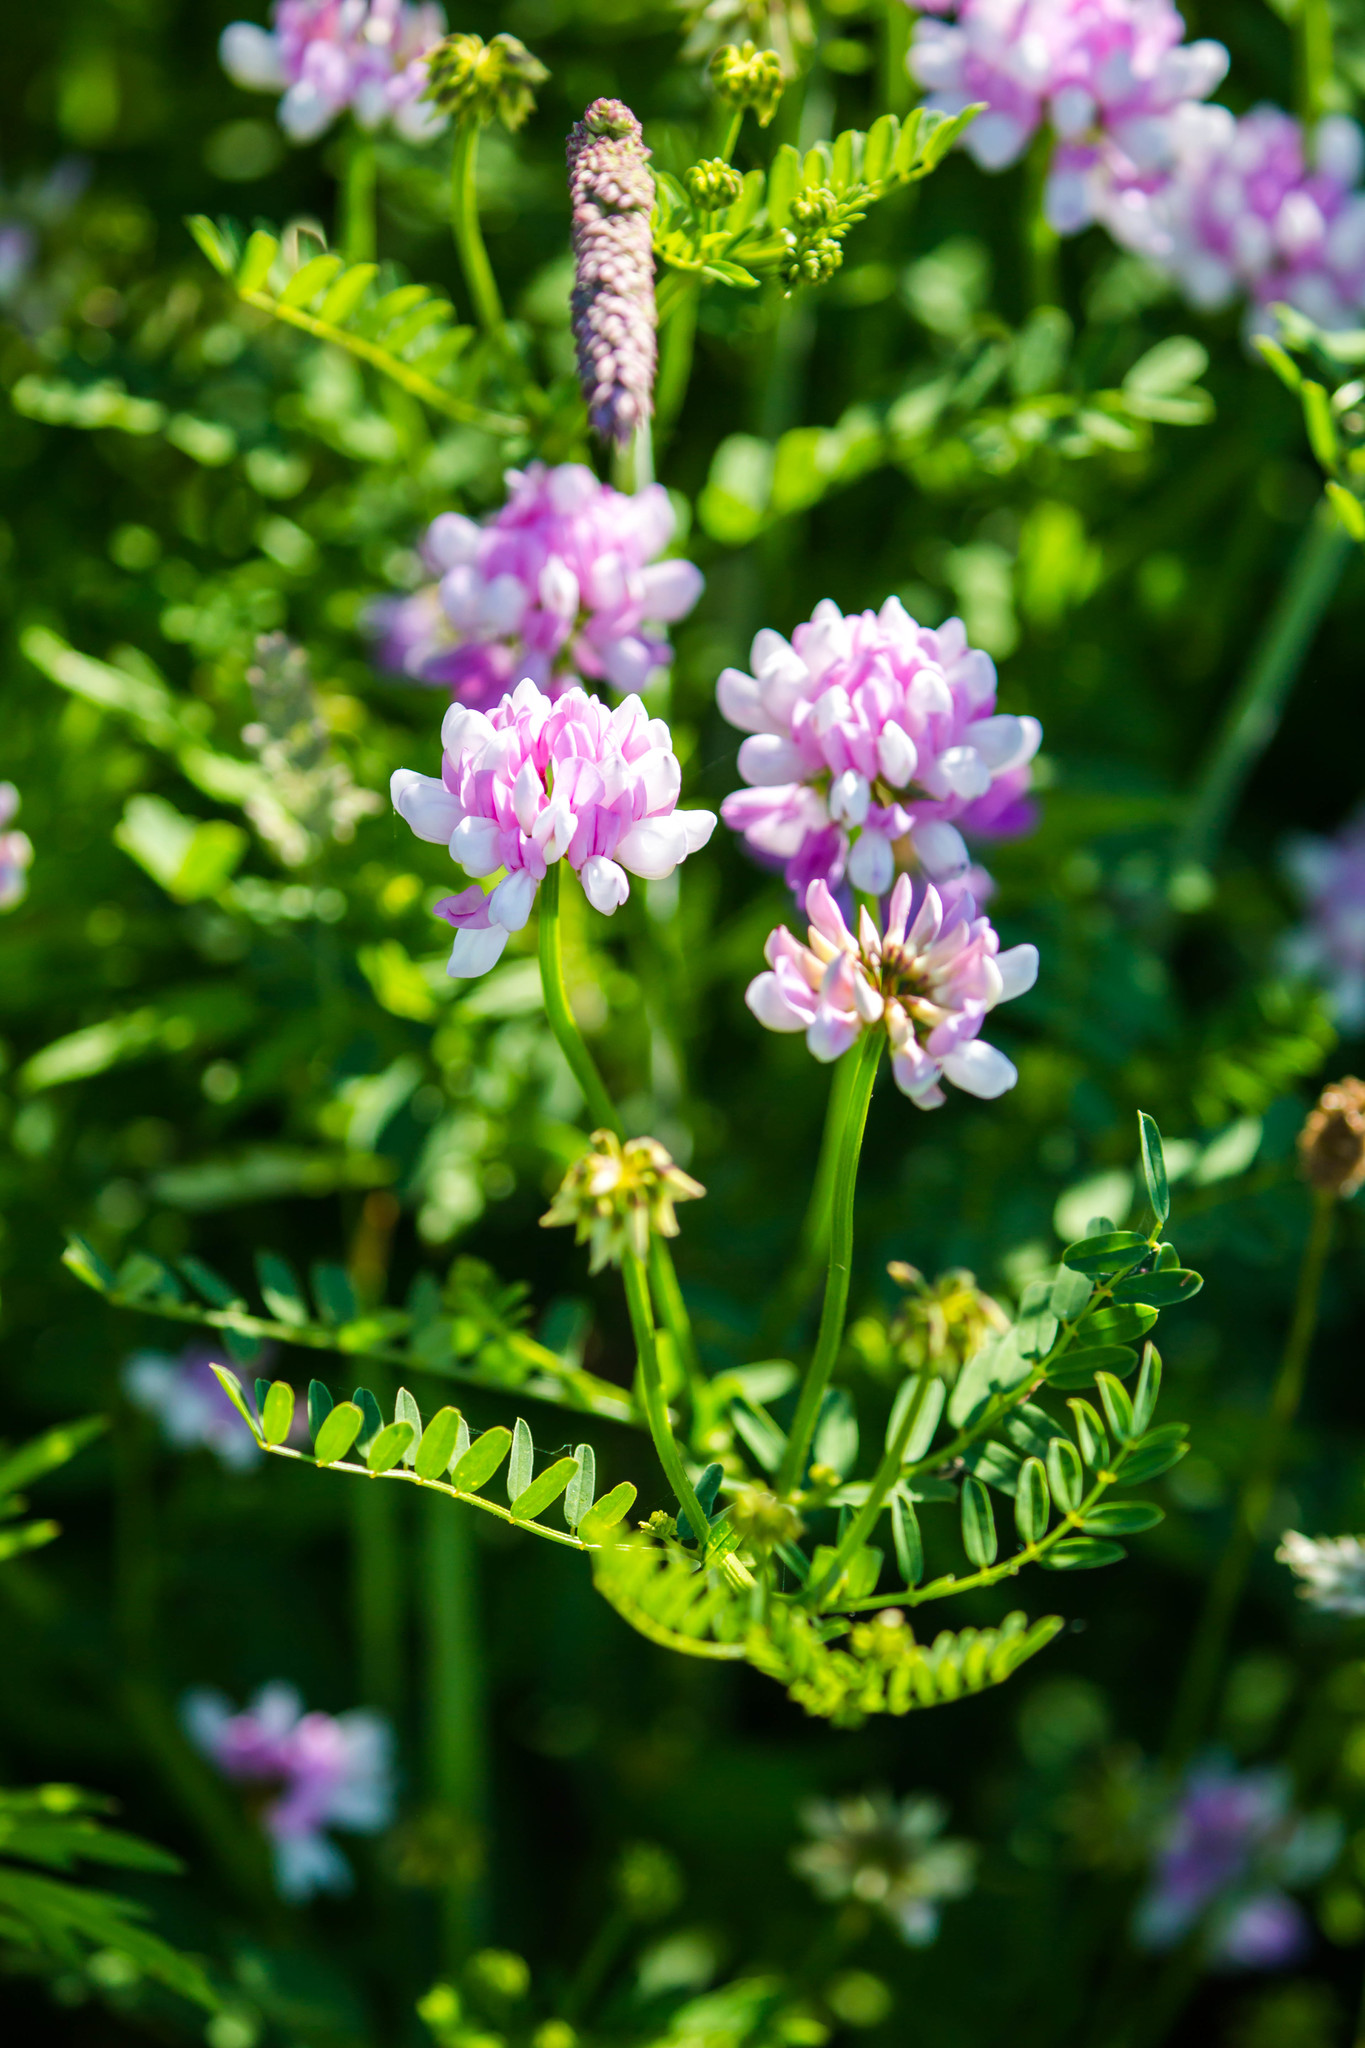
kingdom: Plantae
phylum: Tracheophyta
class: Magnoliopsida
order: Fabales
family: Fabaceae
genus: Coronilla
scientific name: Coronilla varia
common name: Crownvetch
